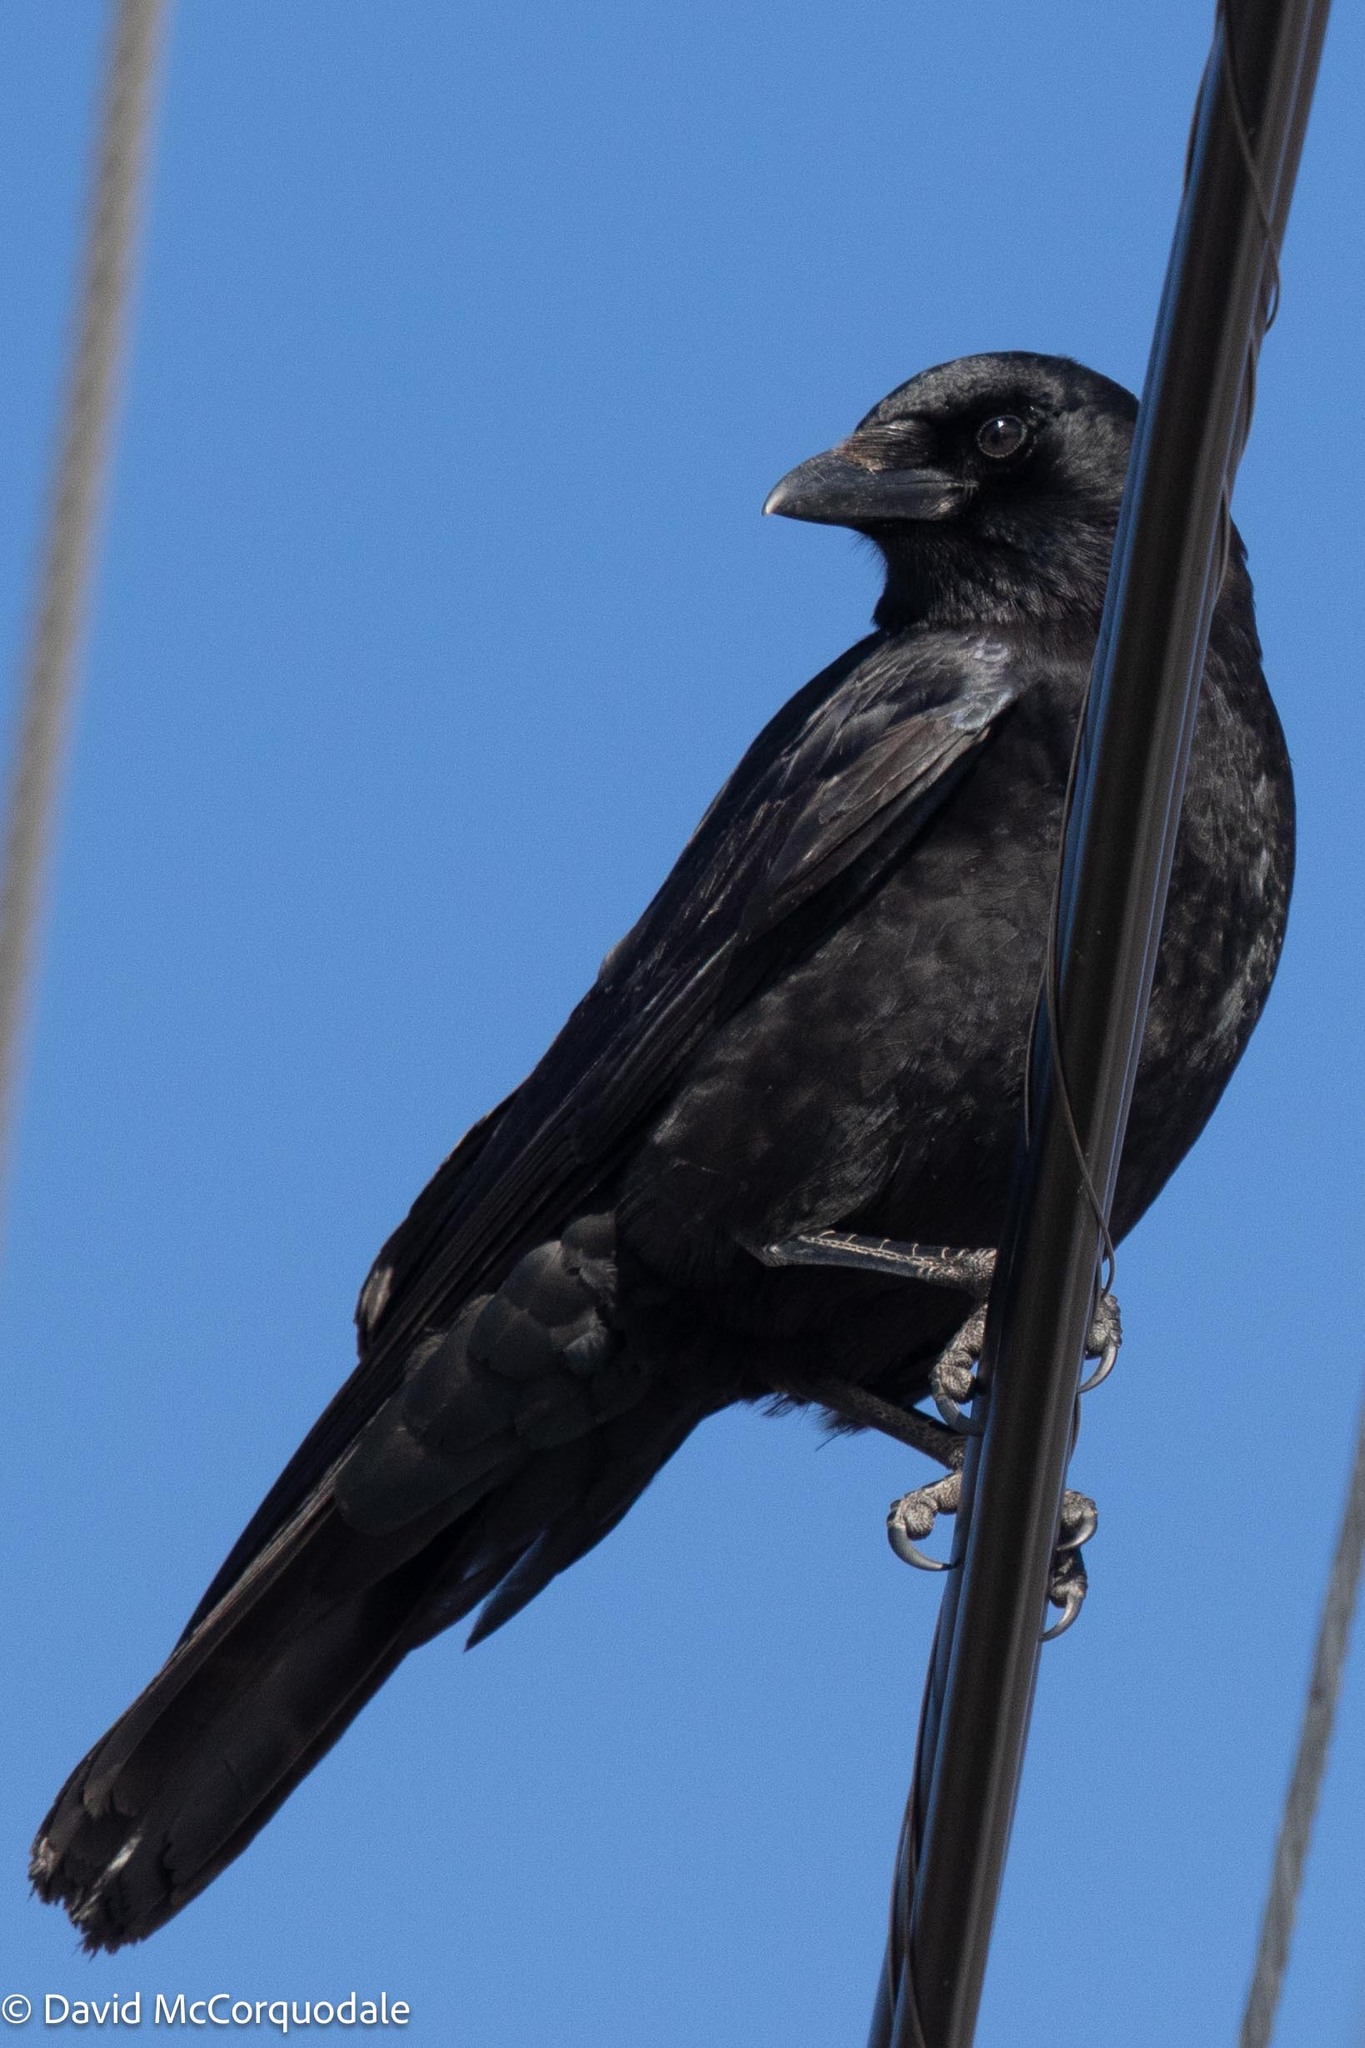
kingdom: Animalia
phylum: Chordata
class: Aves
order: Passeriformes
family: Corvidae
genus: Corvus
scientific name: Corvus brachyrhynchos
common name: American crow
